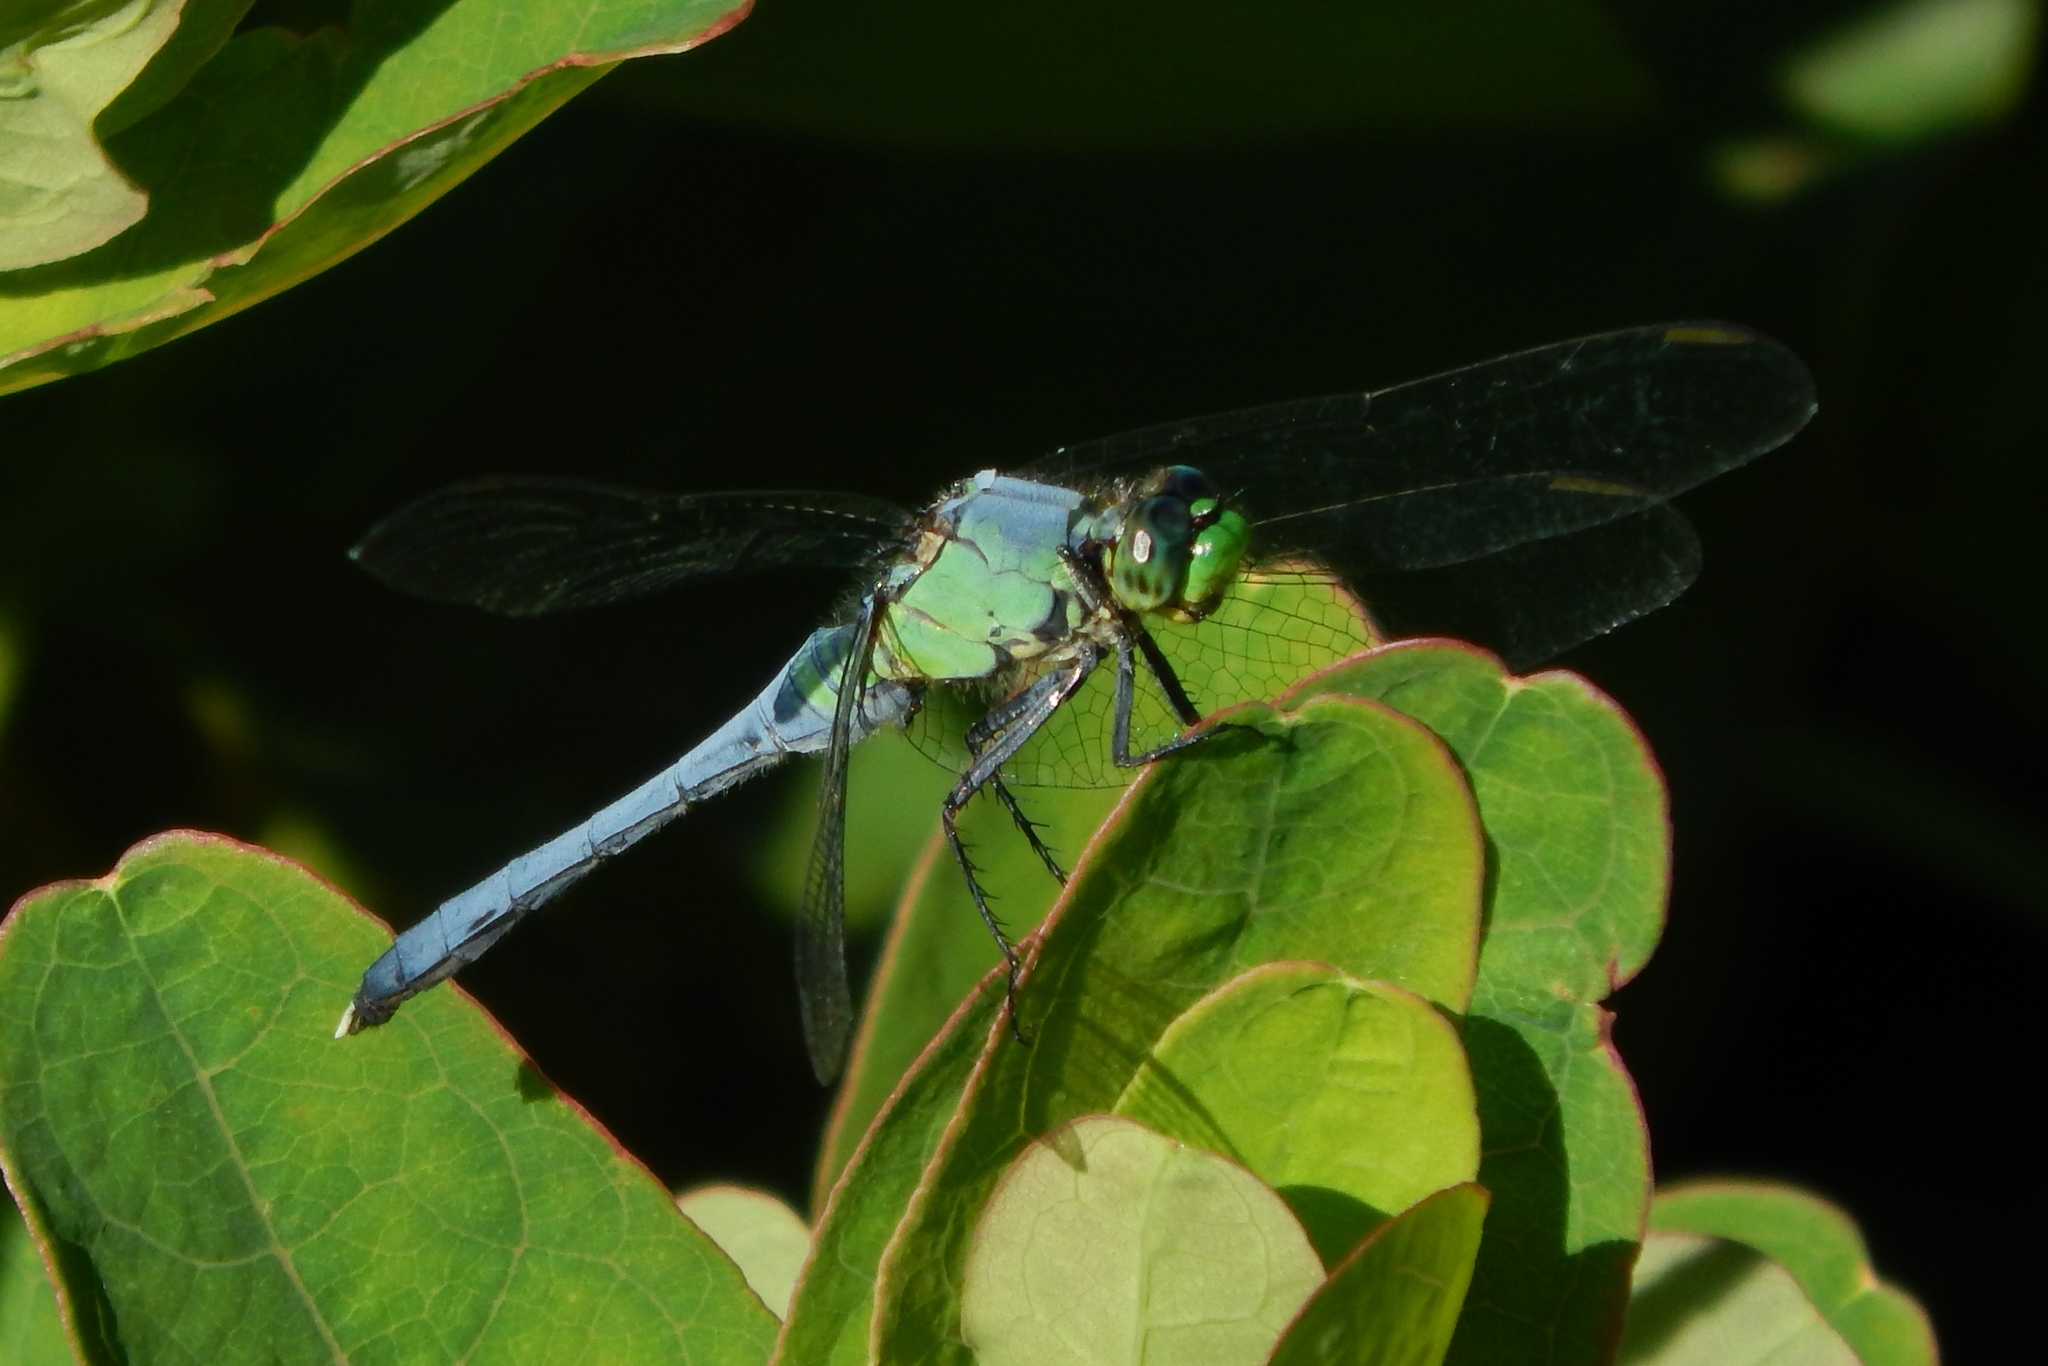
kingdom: Animalia
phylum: Arthropoda
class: Insecta
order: Odonata
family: Libellulidae
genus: Erythemis
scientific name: Erythemis simplicicollis
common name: Eastern pondhawk
